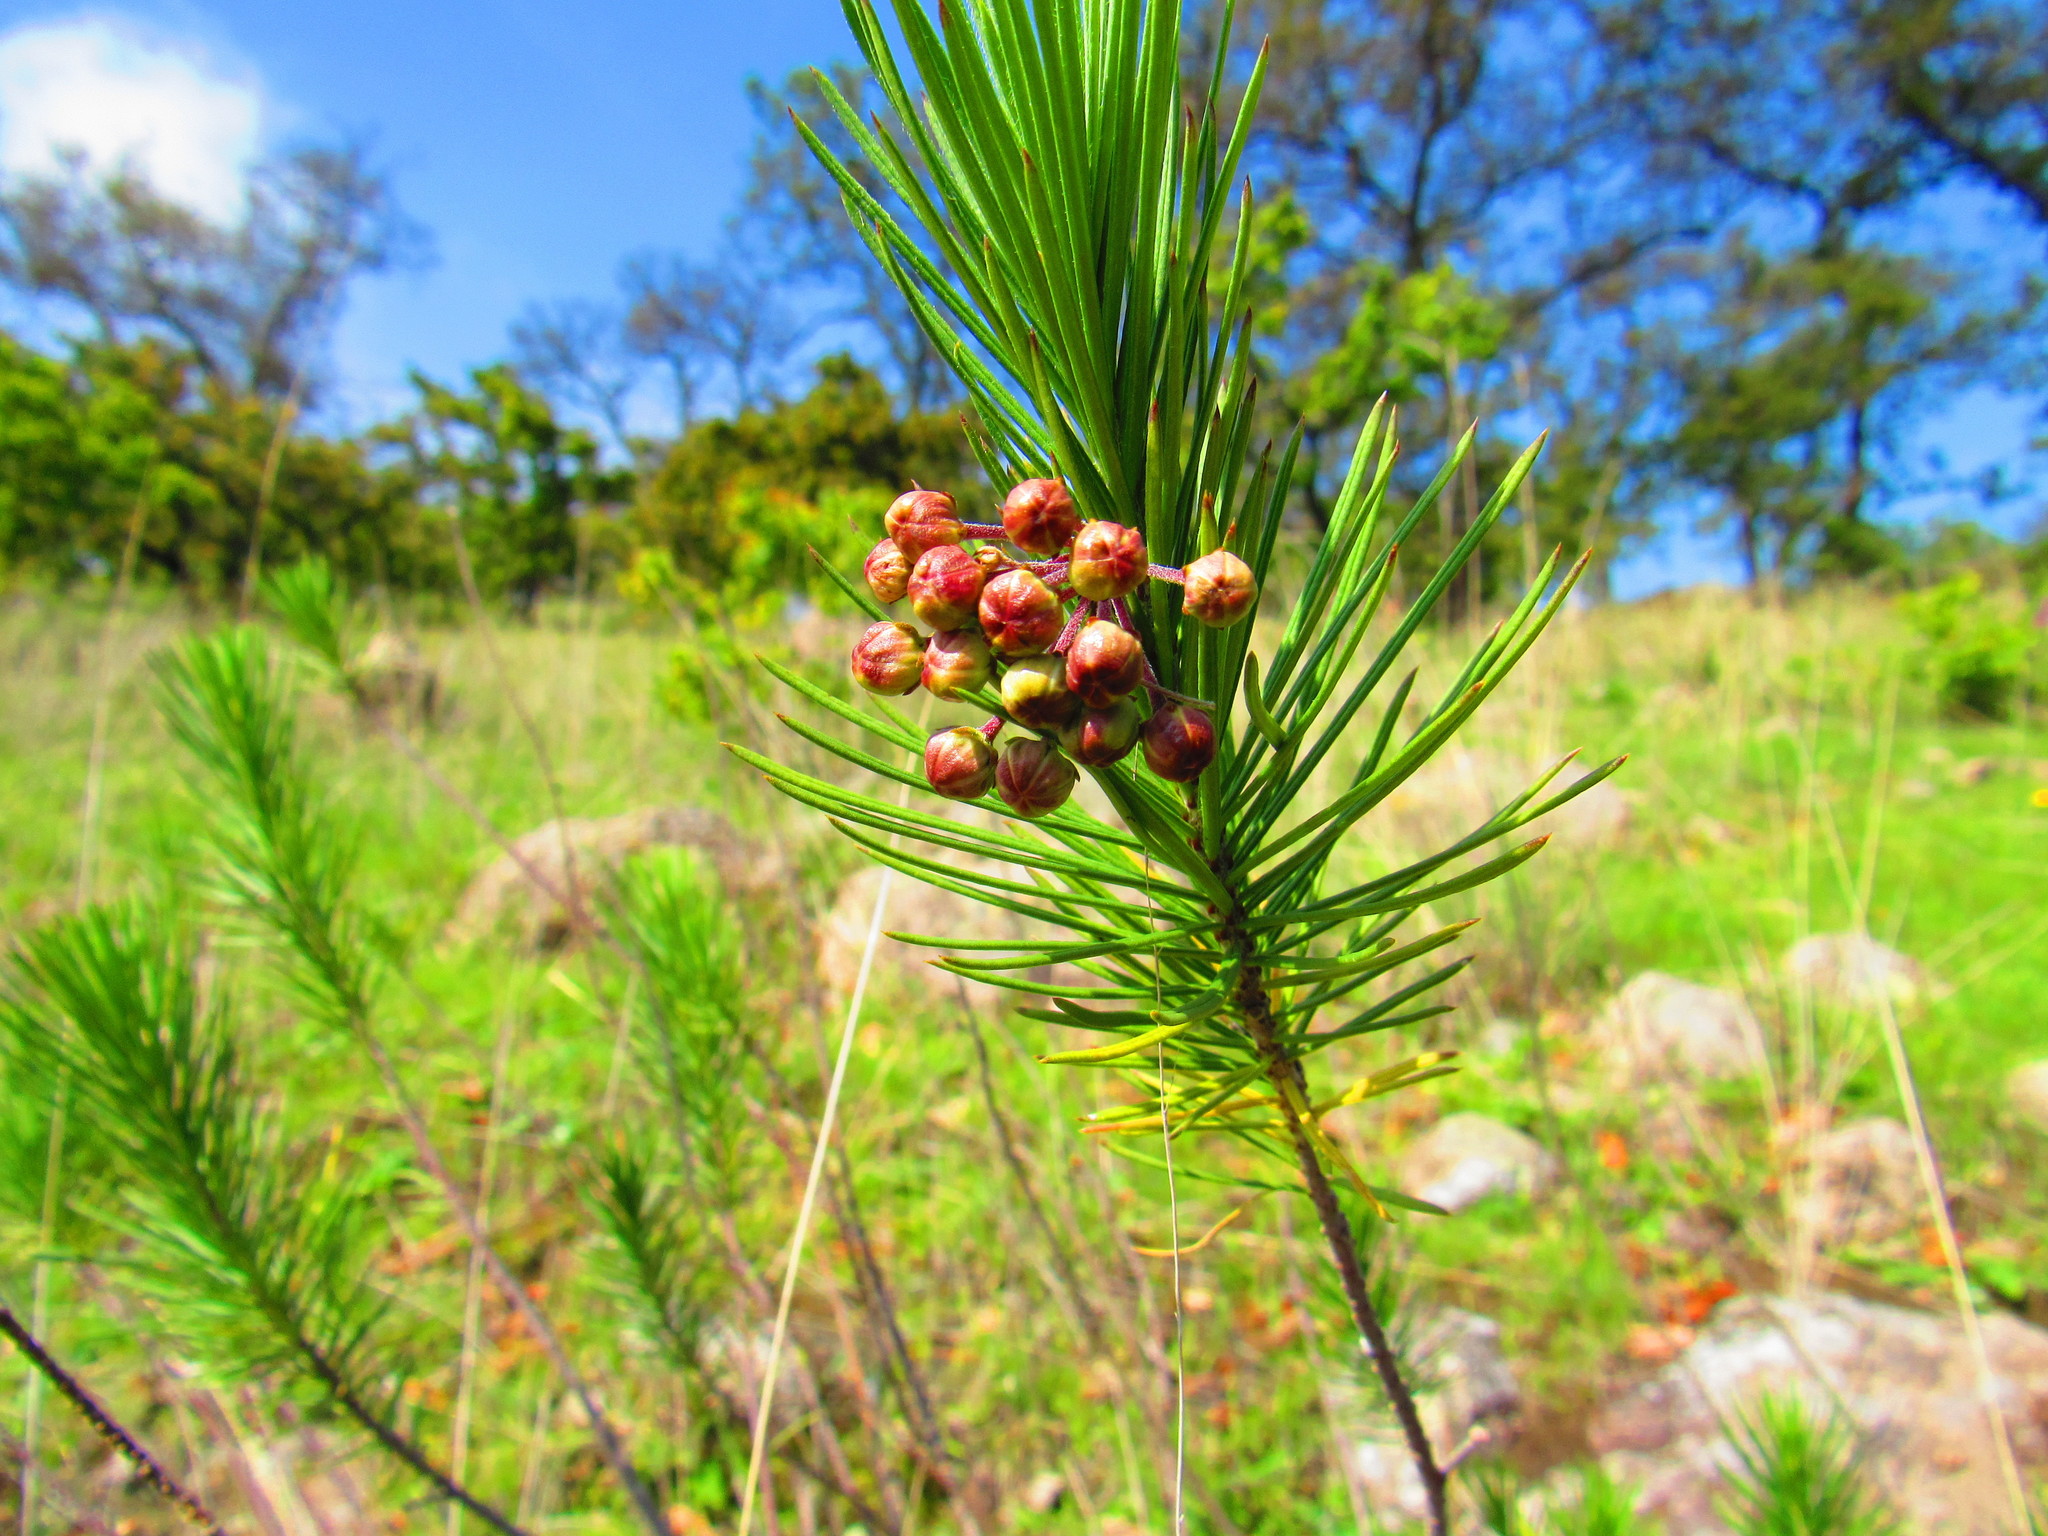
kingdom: Plantae
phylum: Tracheophyta
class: Magnoliopsida
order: Gentianales
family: Apocynaceae
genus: Asclepias
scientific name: Asclepias linaria
